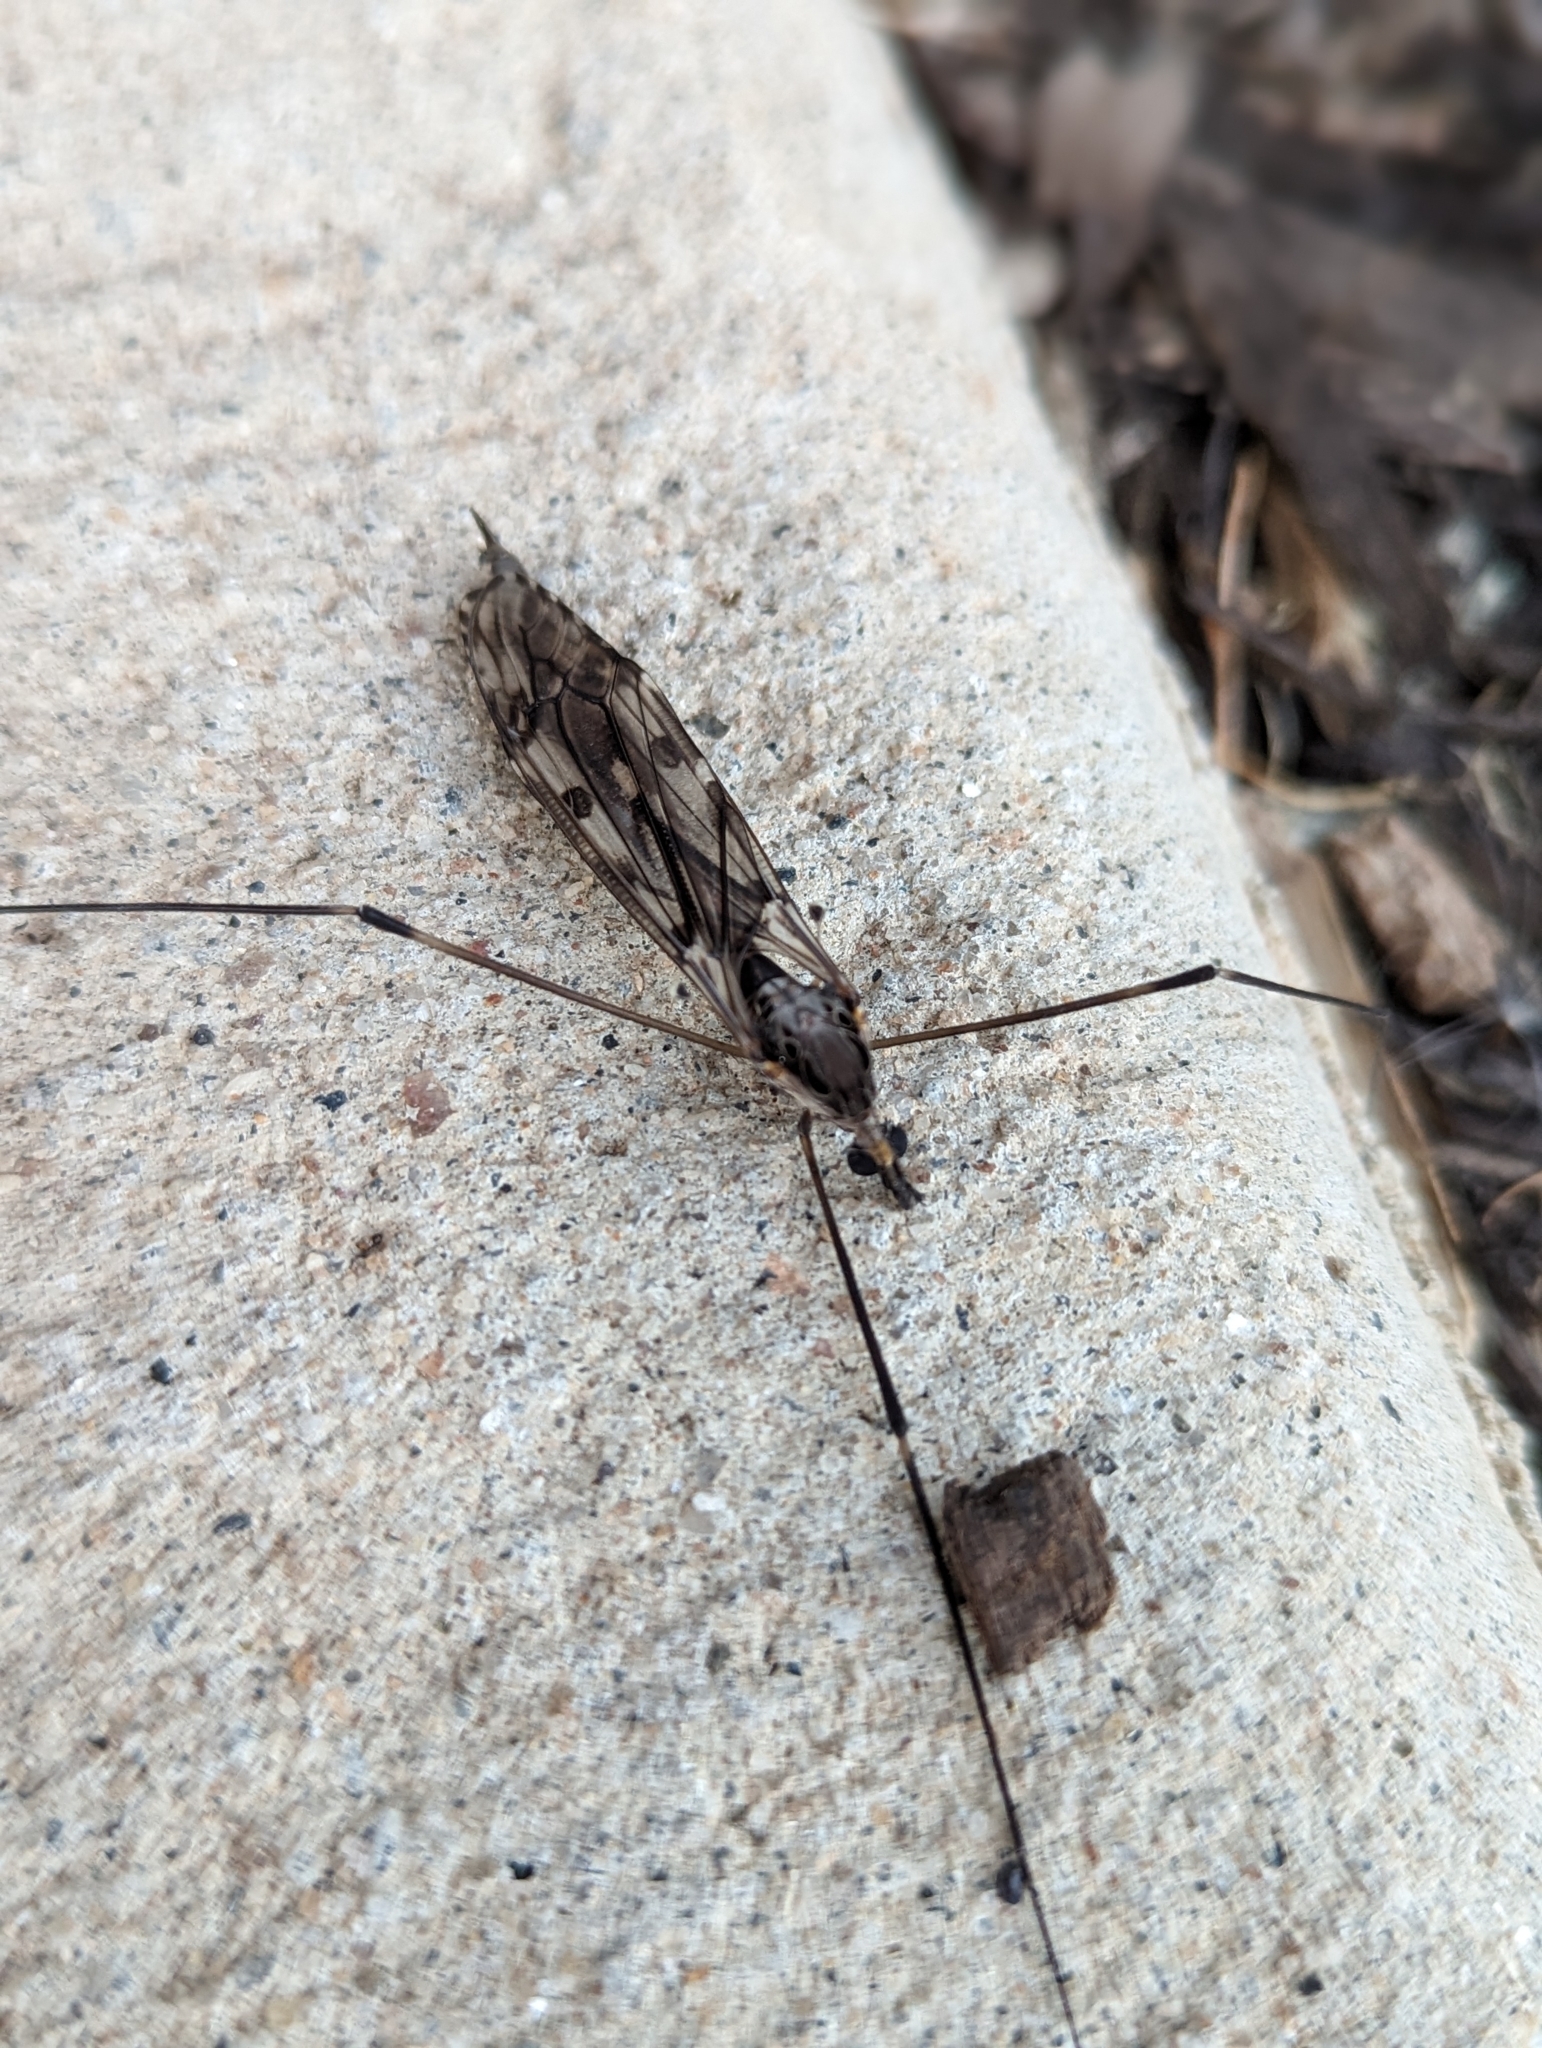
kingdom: Animalia
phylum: Arthropoda
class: Insecta
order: Diptera
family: Tipulidae
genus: Tipula
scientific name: Tipula abdominalis
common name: Giant crane fly
